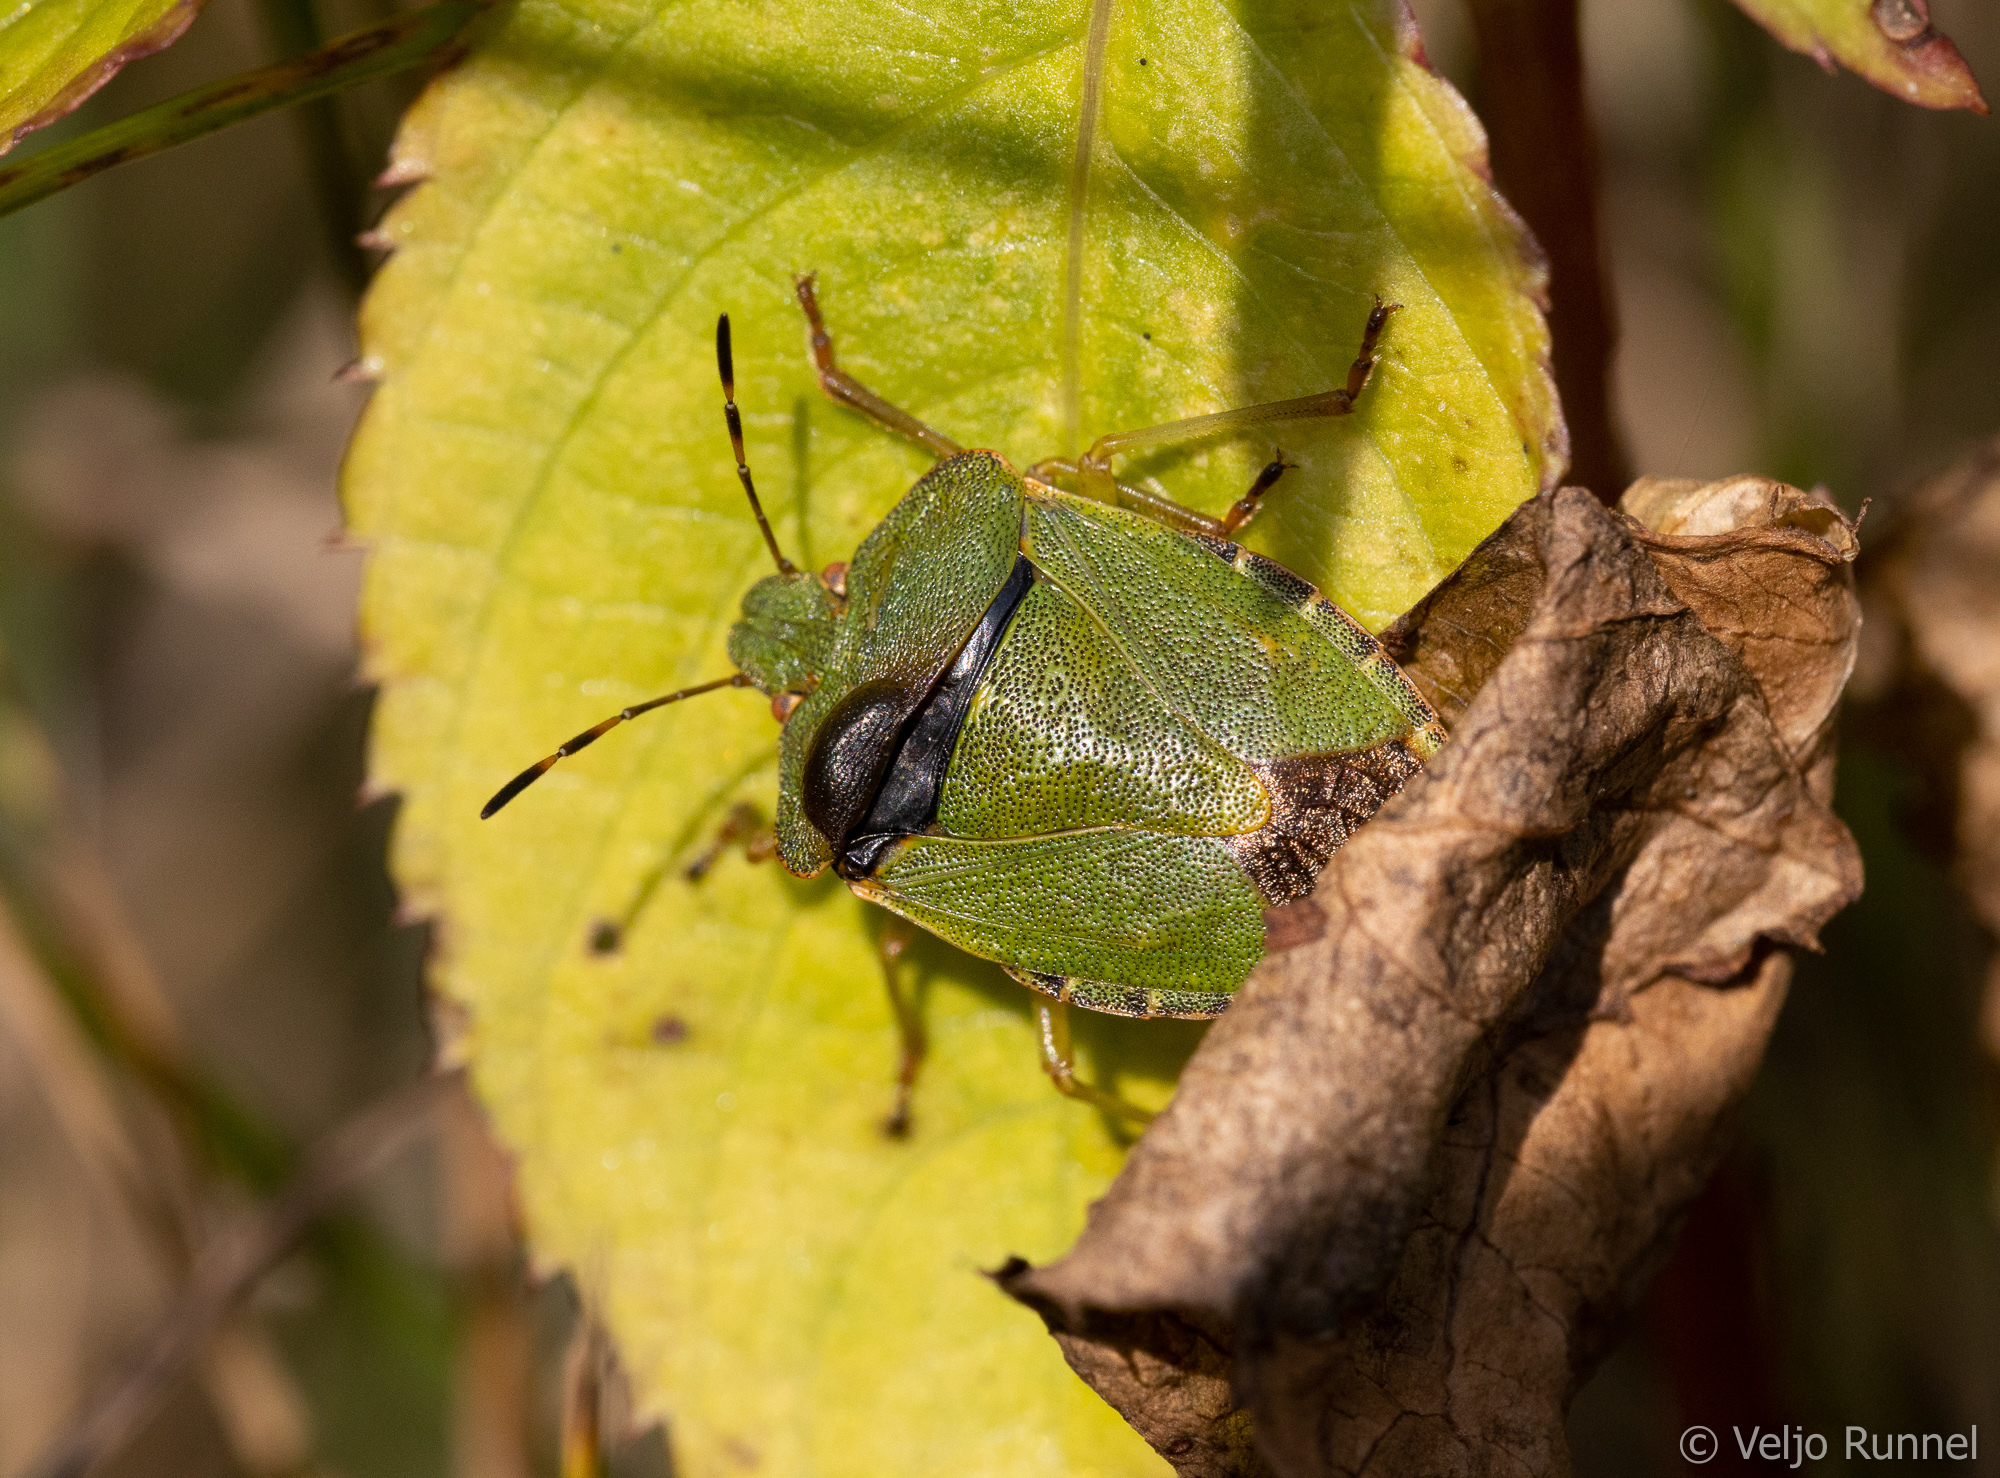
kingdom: Animalia
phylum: Arthropoda
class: Insecta
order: Hemiptera
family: Pentatomidae
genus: Palomena
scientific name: Palomena prasina
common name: Green shieldbug
